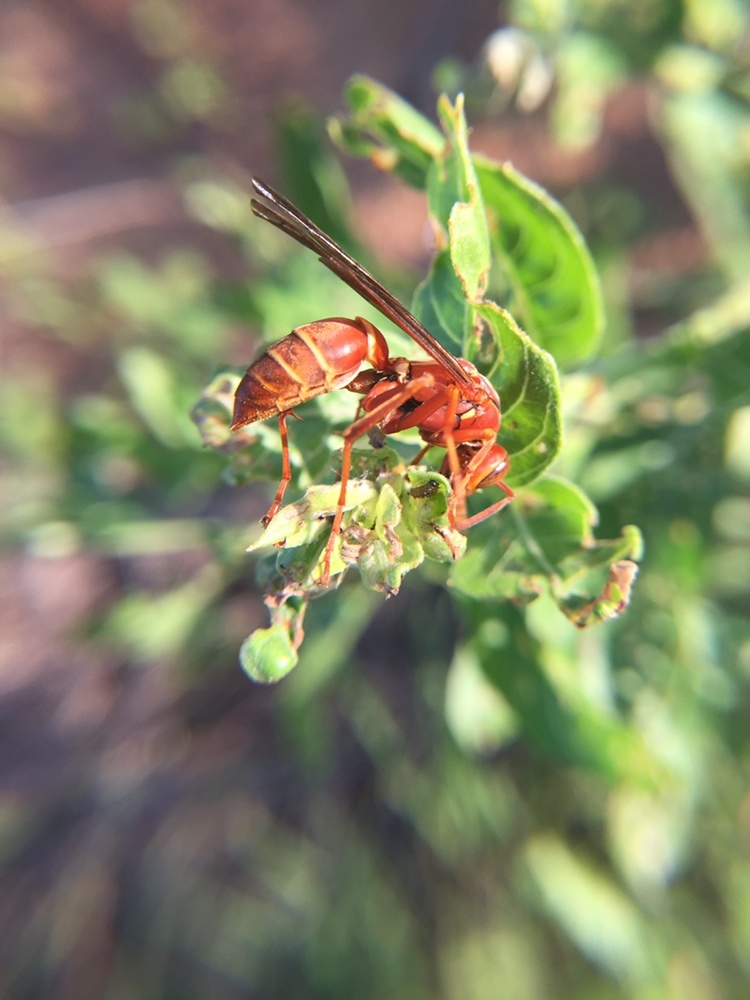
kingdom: Animalia
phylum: Arthropoda
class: Insecta
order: Hymenoptera
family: Eumenidae
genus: Polistes
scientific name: Polistes bellicosus
